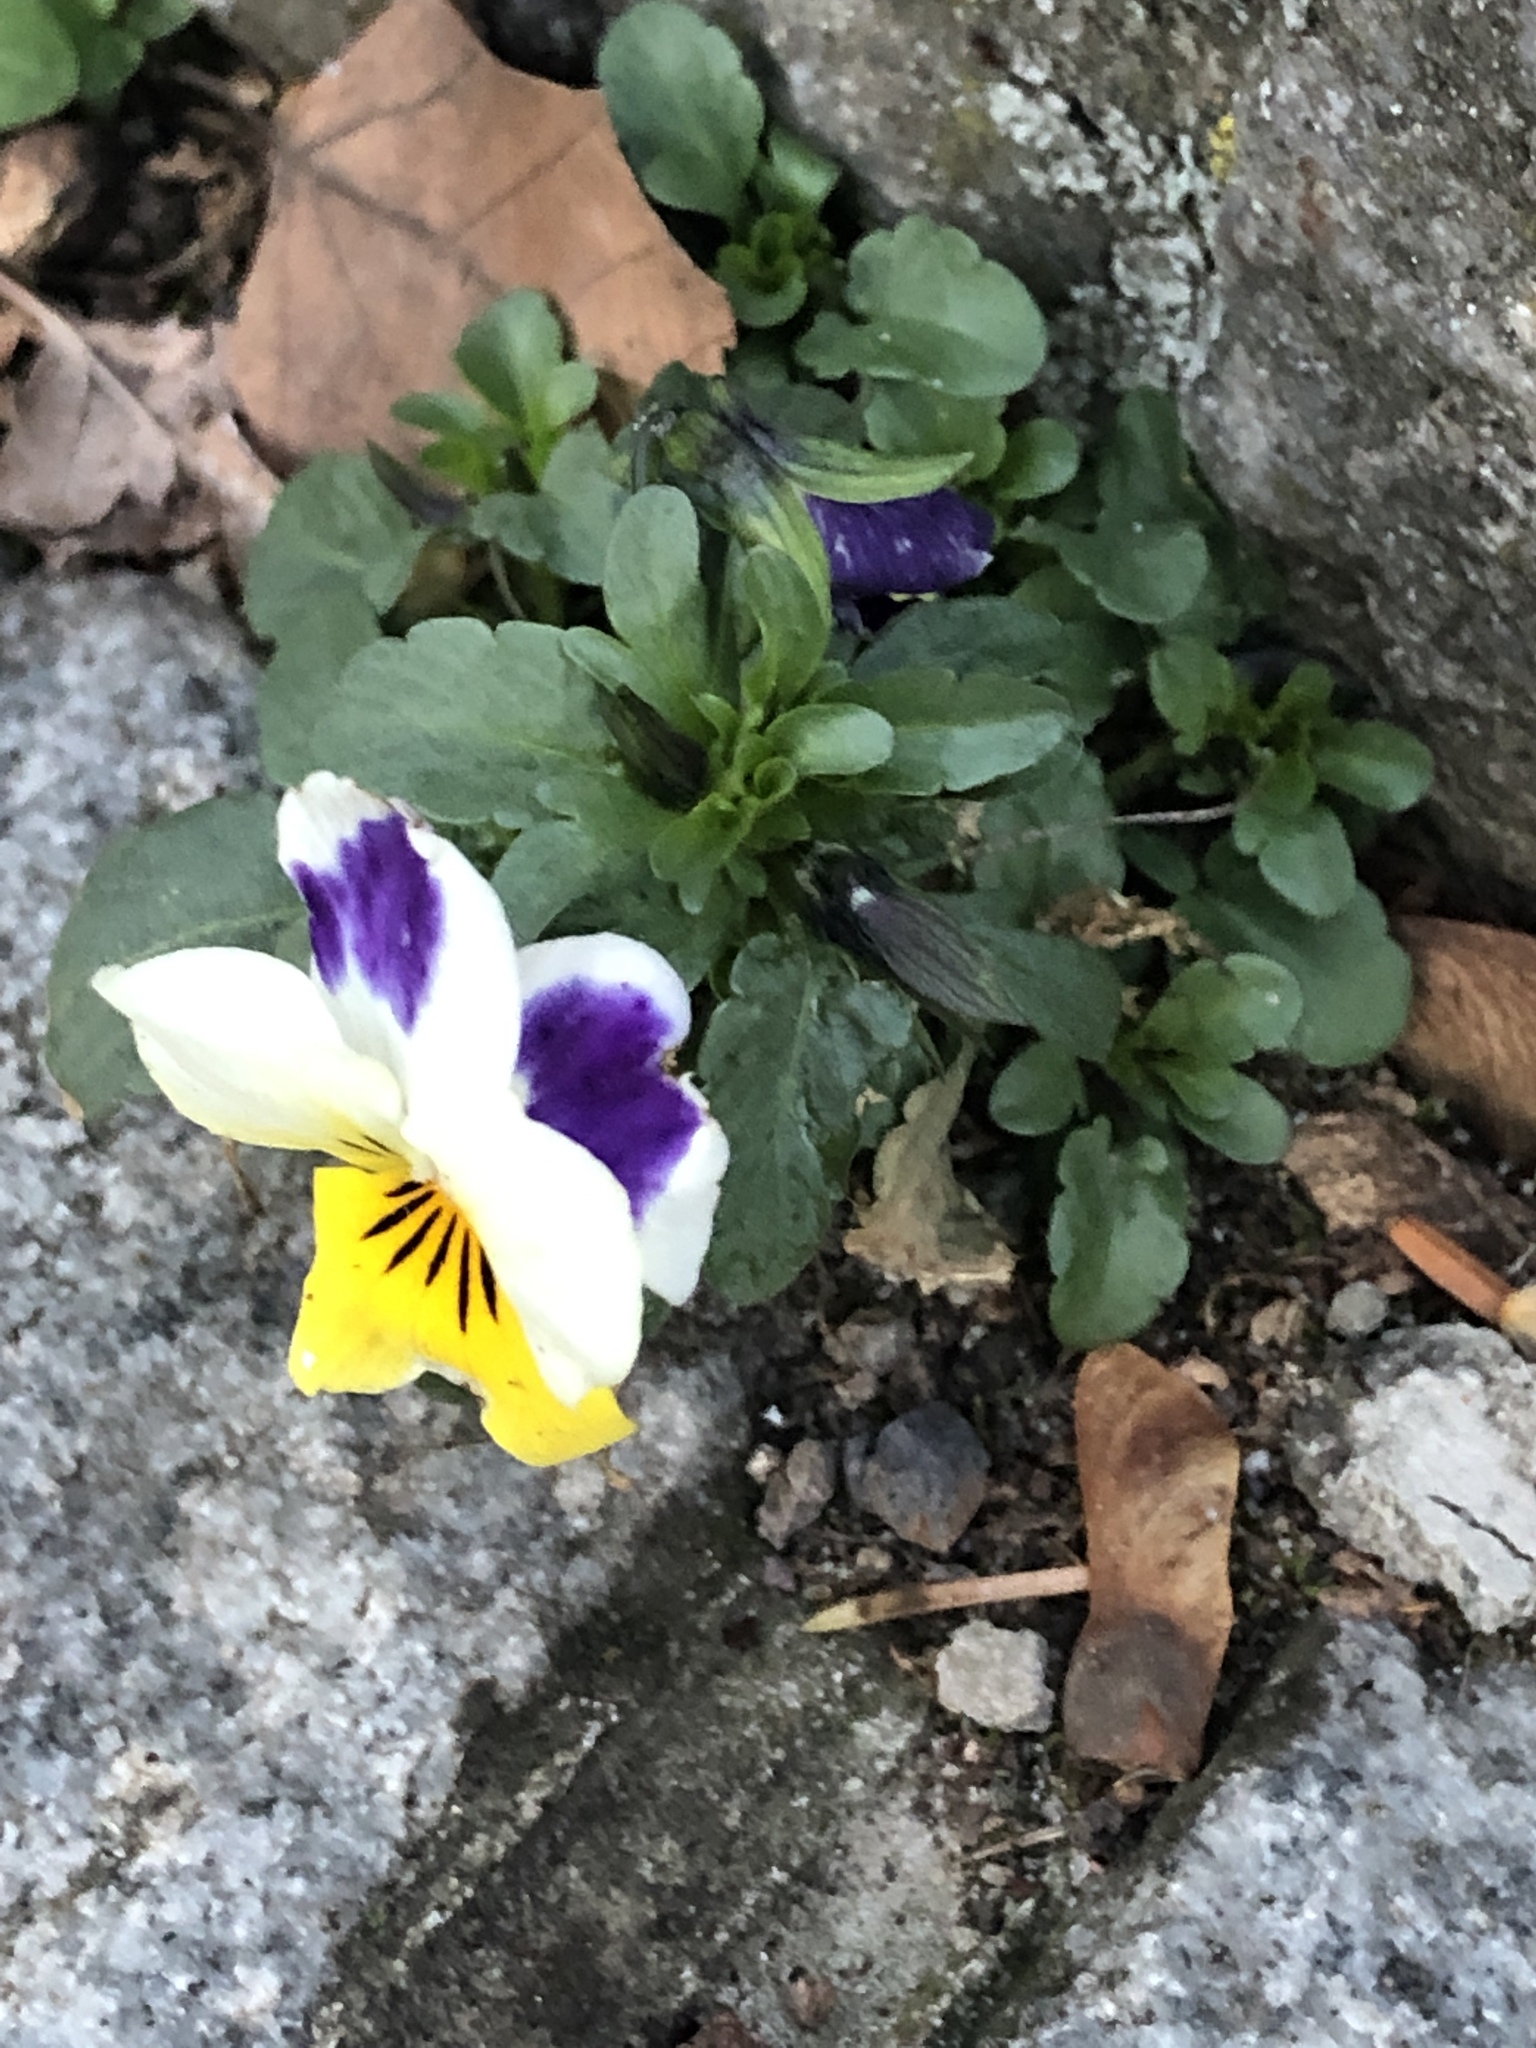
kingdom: Plantae
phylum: Tracheophyta
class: Magnoliopsida
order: Malpighiales
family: Violaceae
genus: Viola
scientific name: Viola williamsii
